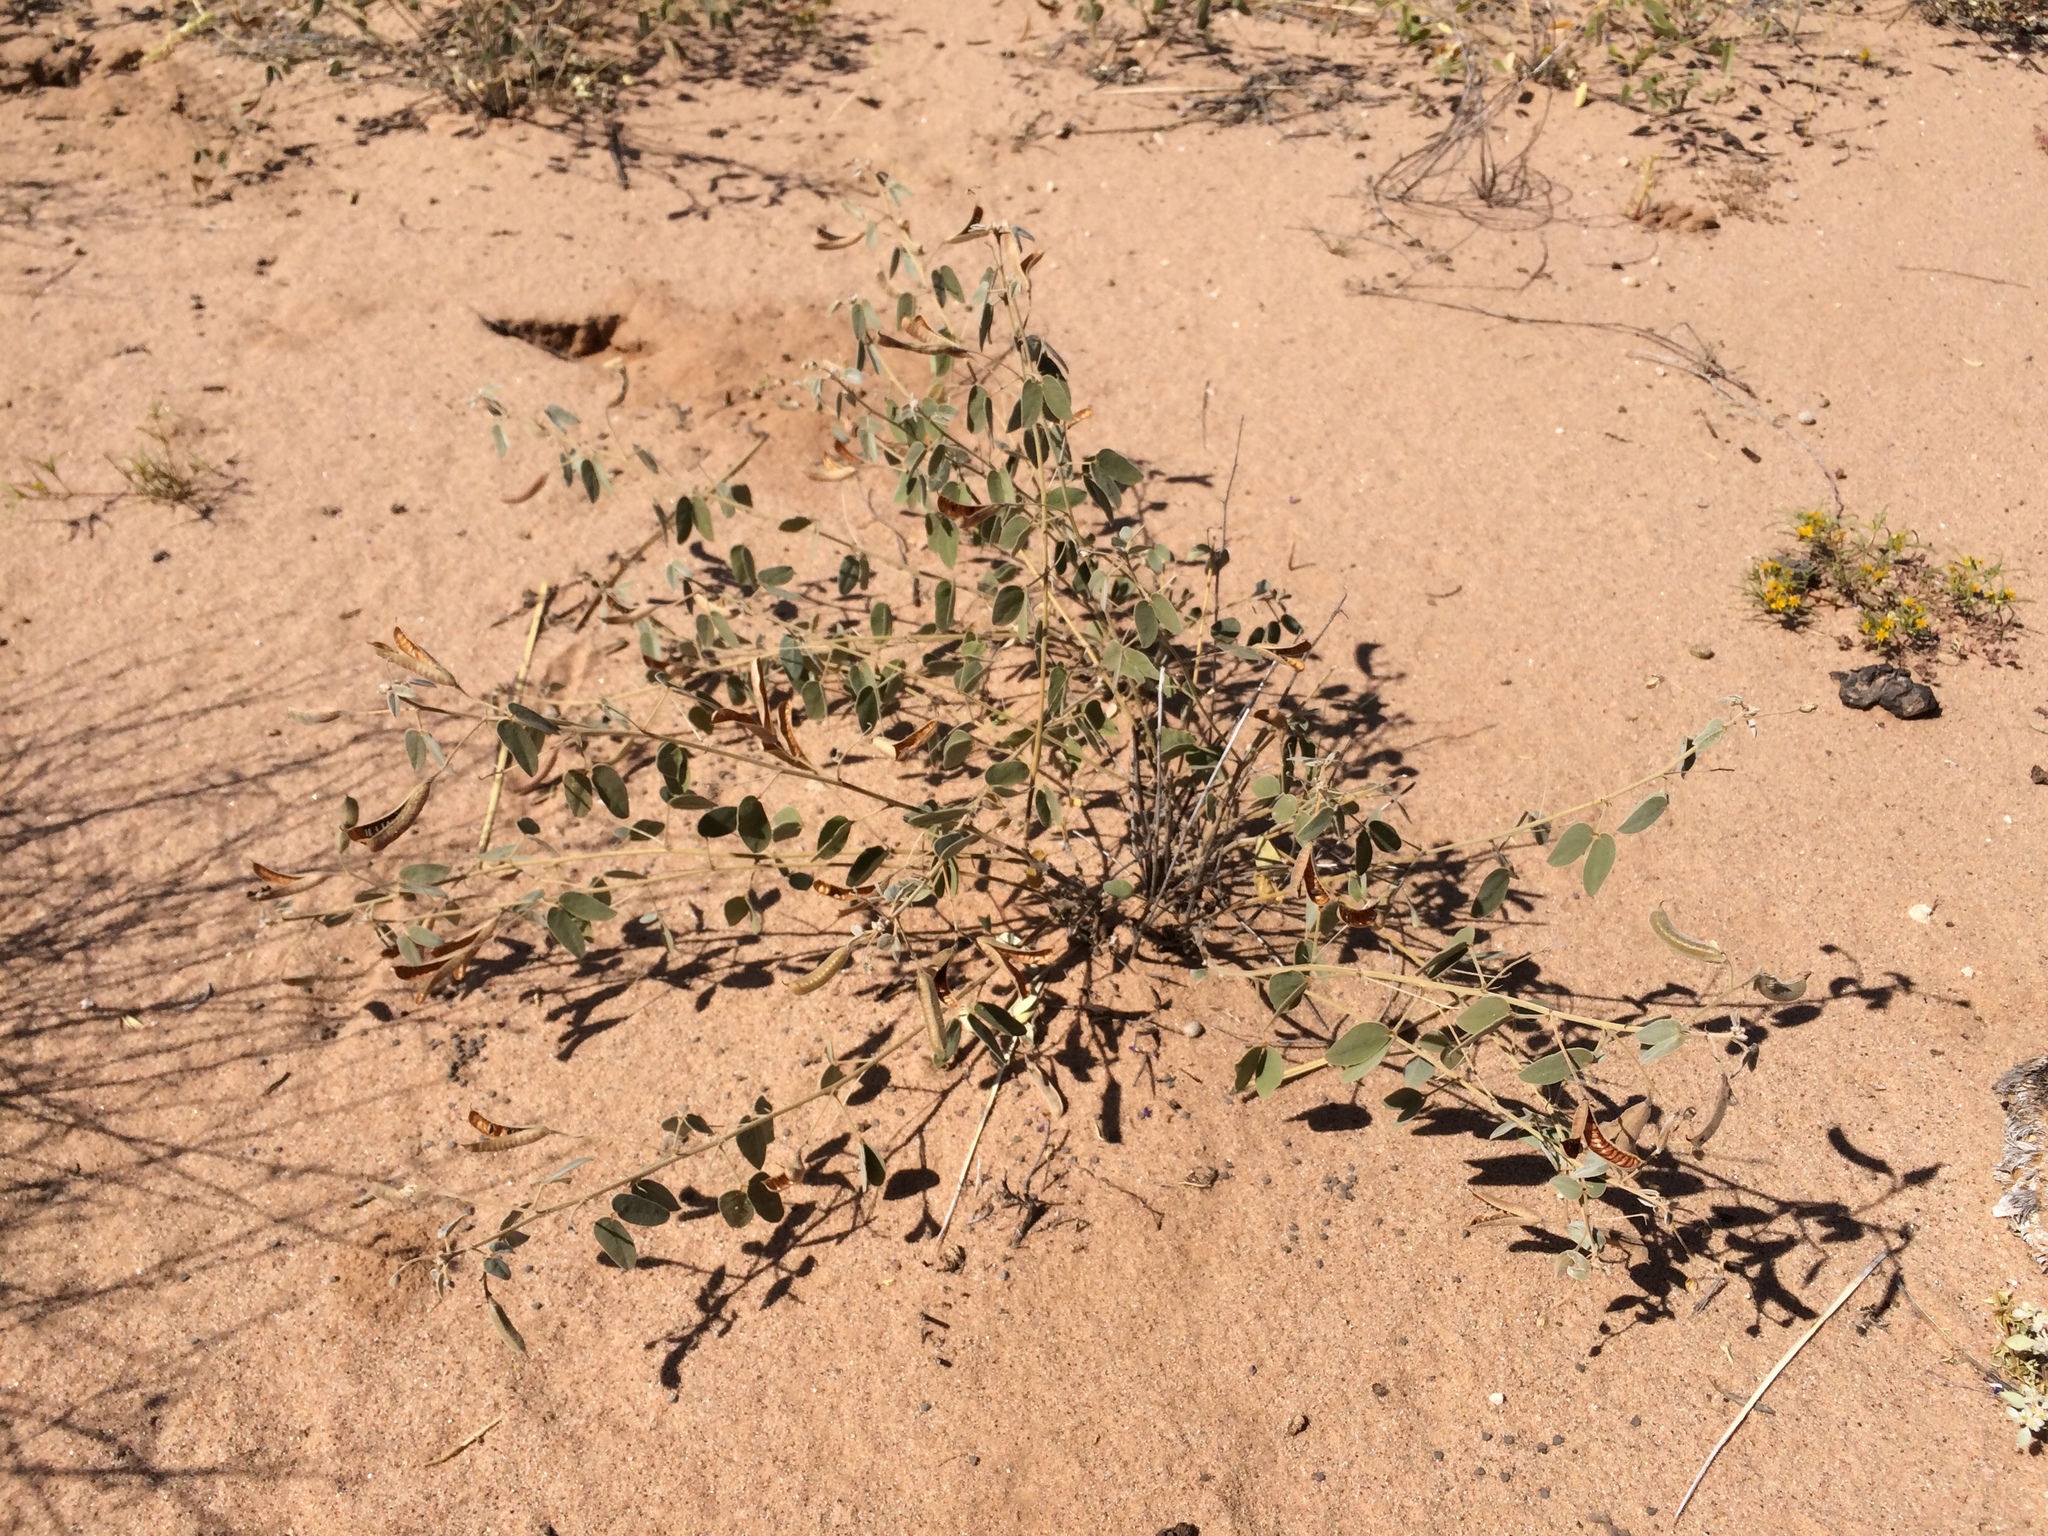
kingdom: Plantae
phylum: Tracheophyta
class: Magnoliopsida
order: Fabales
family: Fabaceae
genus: Senna
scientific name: Senna bauhinioides
